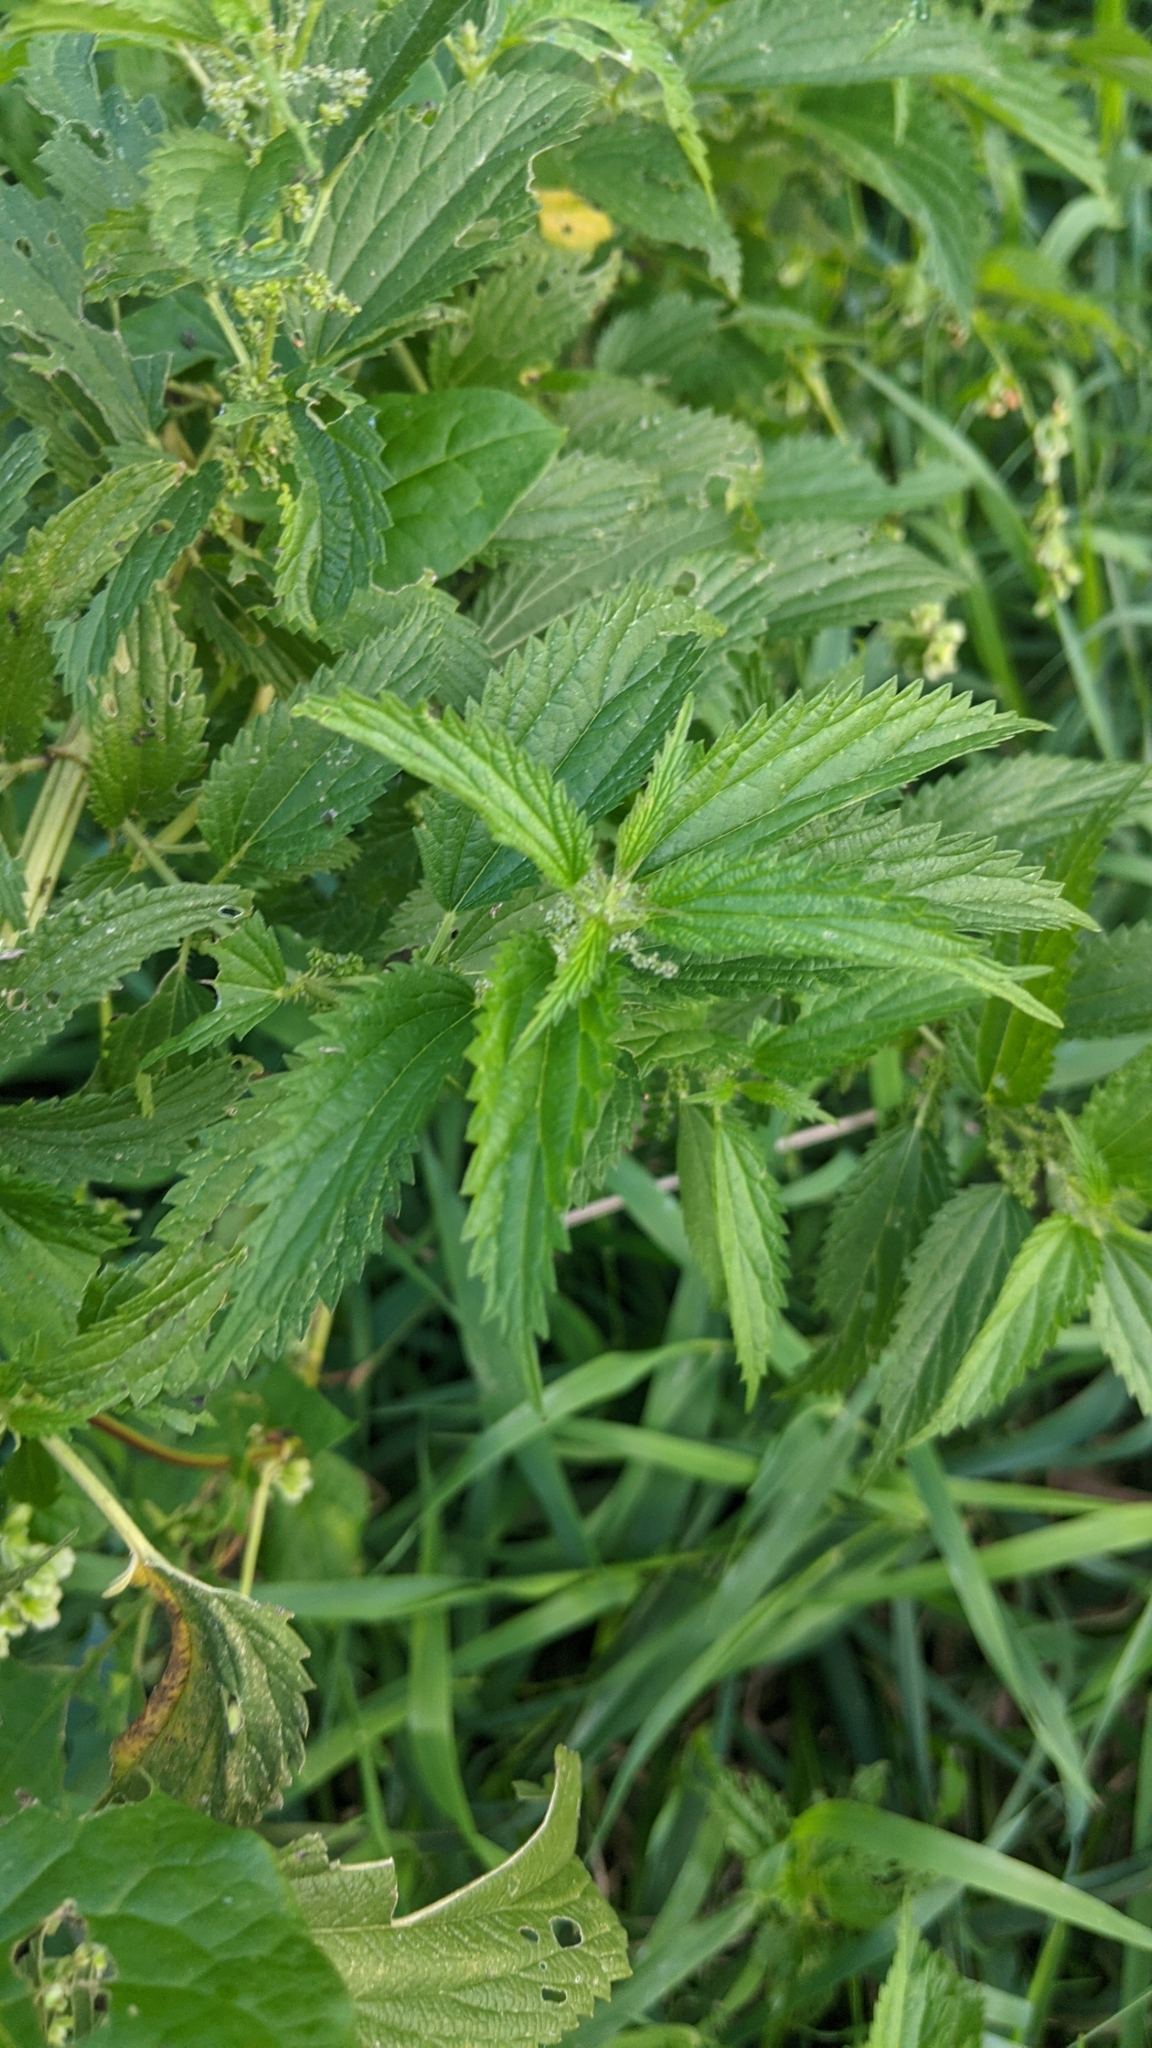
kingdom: Plantae
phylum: Tracheophyta
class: Magnoliopsida
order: Rosales
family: Urticaceae
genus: Urtica
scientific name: Urtica gracilis
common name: Slender stinging nettle
